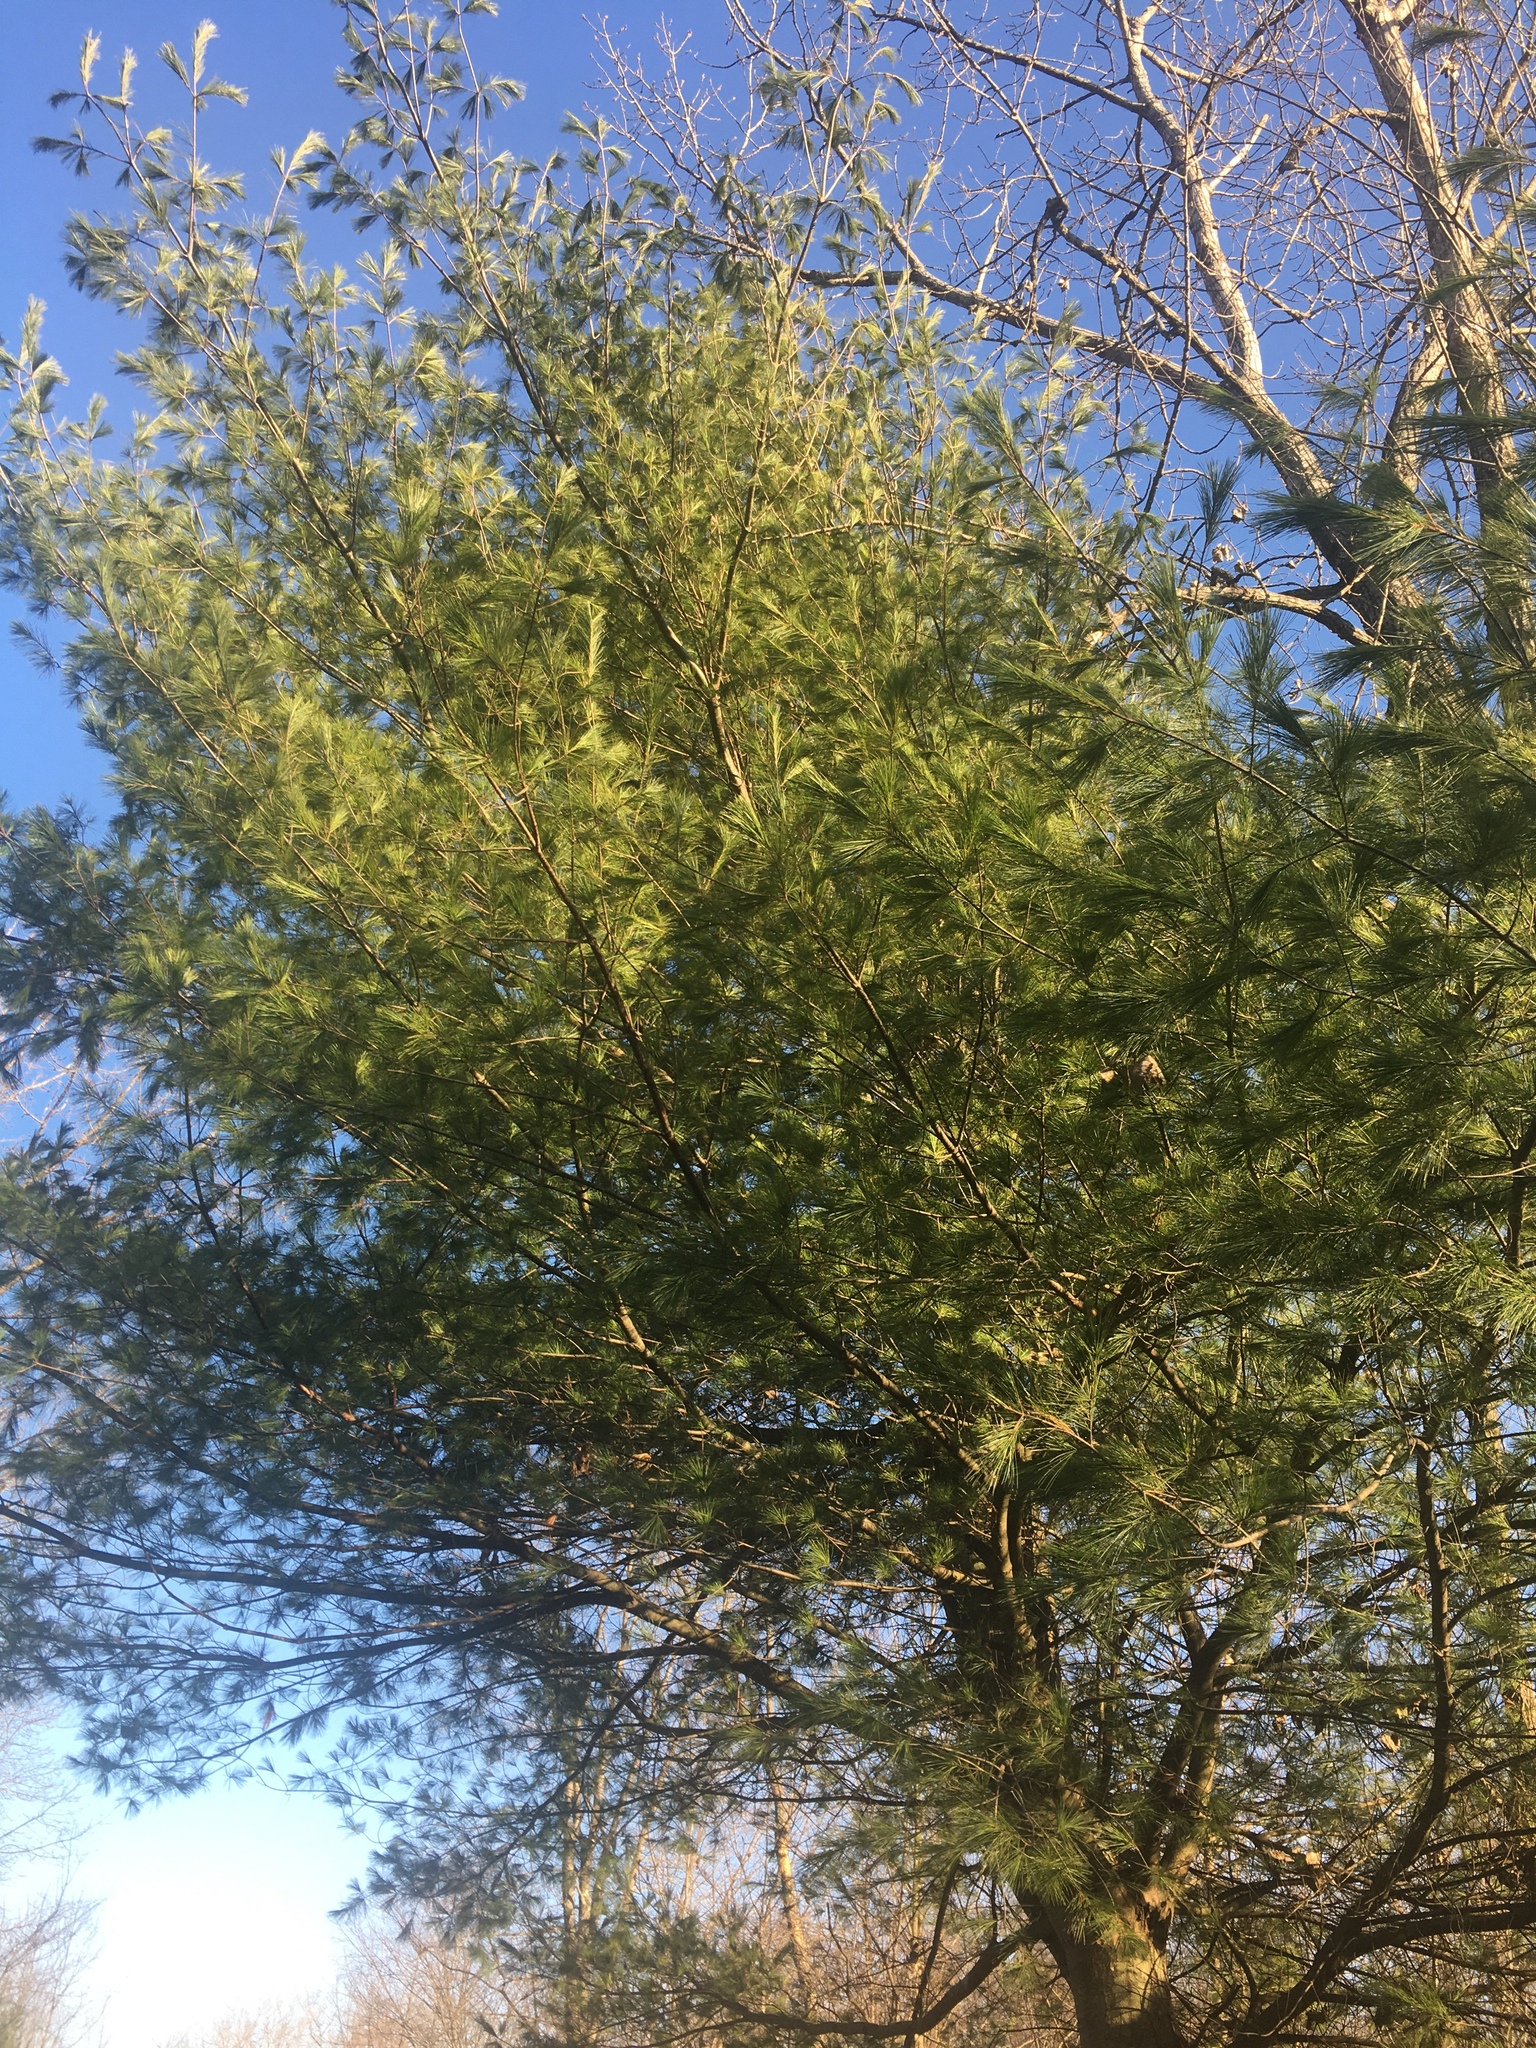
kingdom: Plantae
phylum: Tracheophyta
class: Pinopsida
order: Pinales
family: Pinaceae
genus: Pinus
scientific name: Pinus strobus
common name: Weymouth pine
